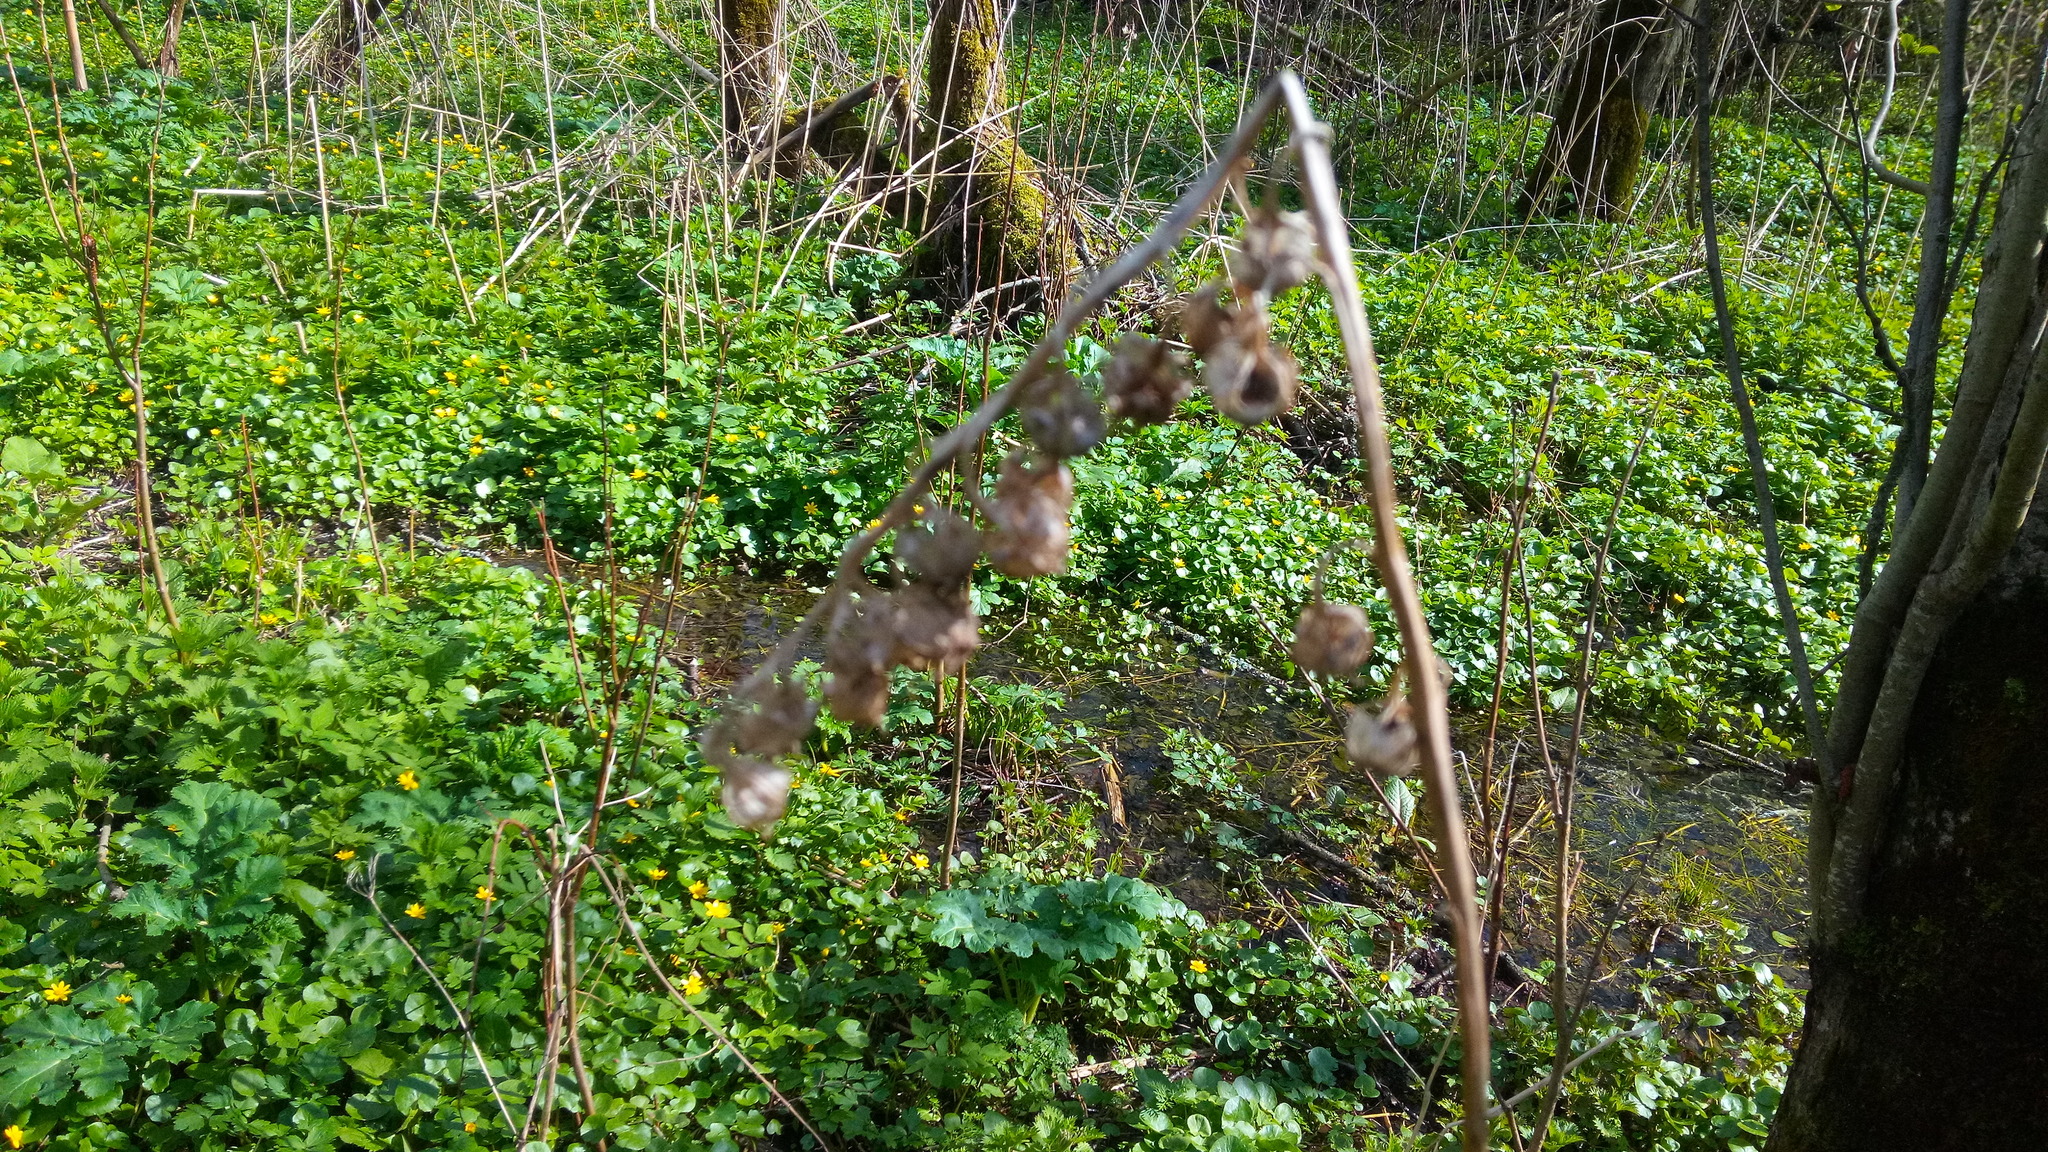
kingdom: Plantae
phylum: Tracheophyta
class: Magnoliopsida
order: Asterales
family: Campanulaceae
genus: Campanula
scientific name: Campanula latifolia
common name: Giant bellflower
